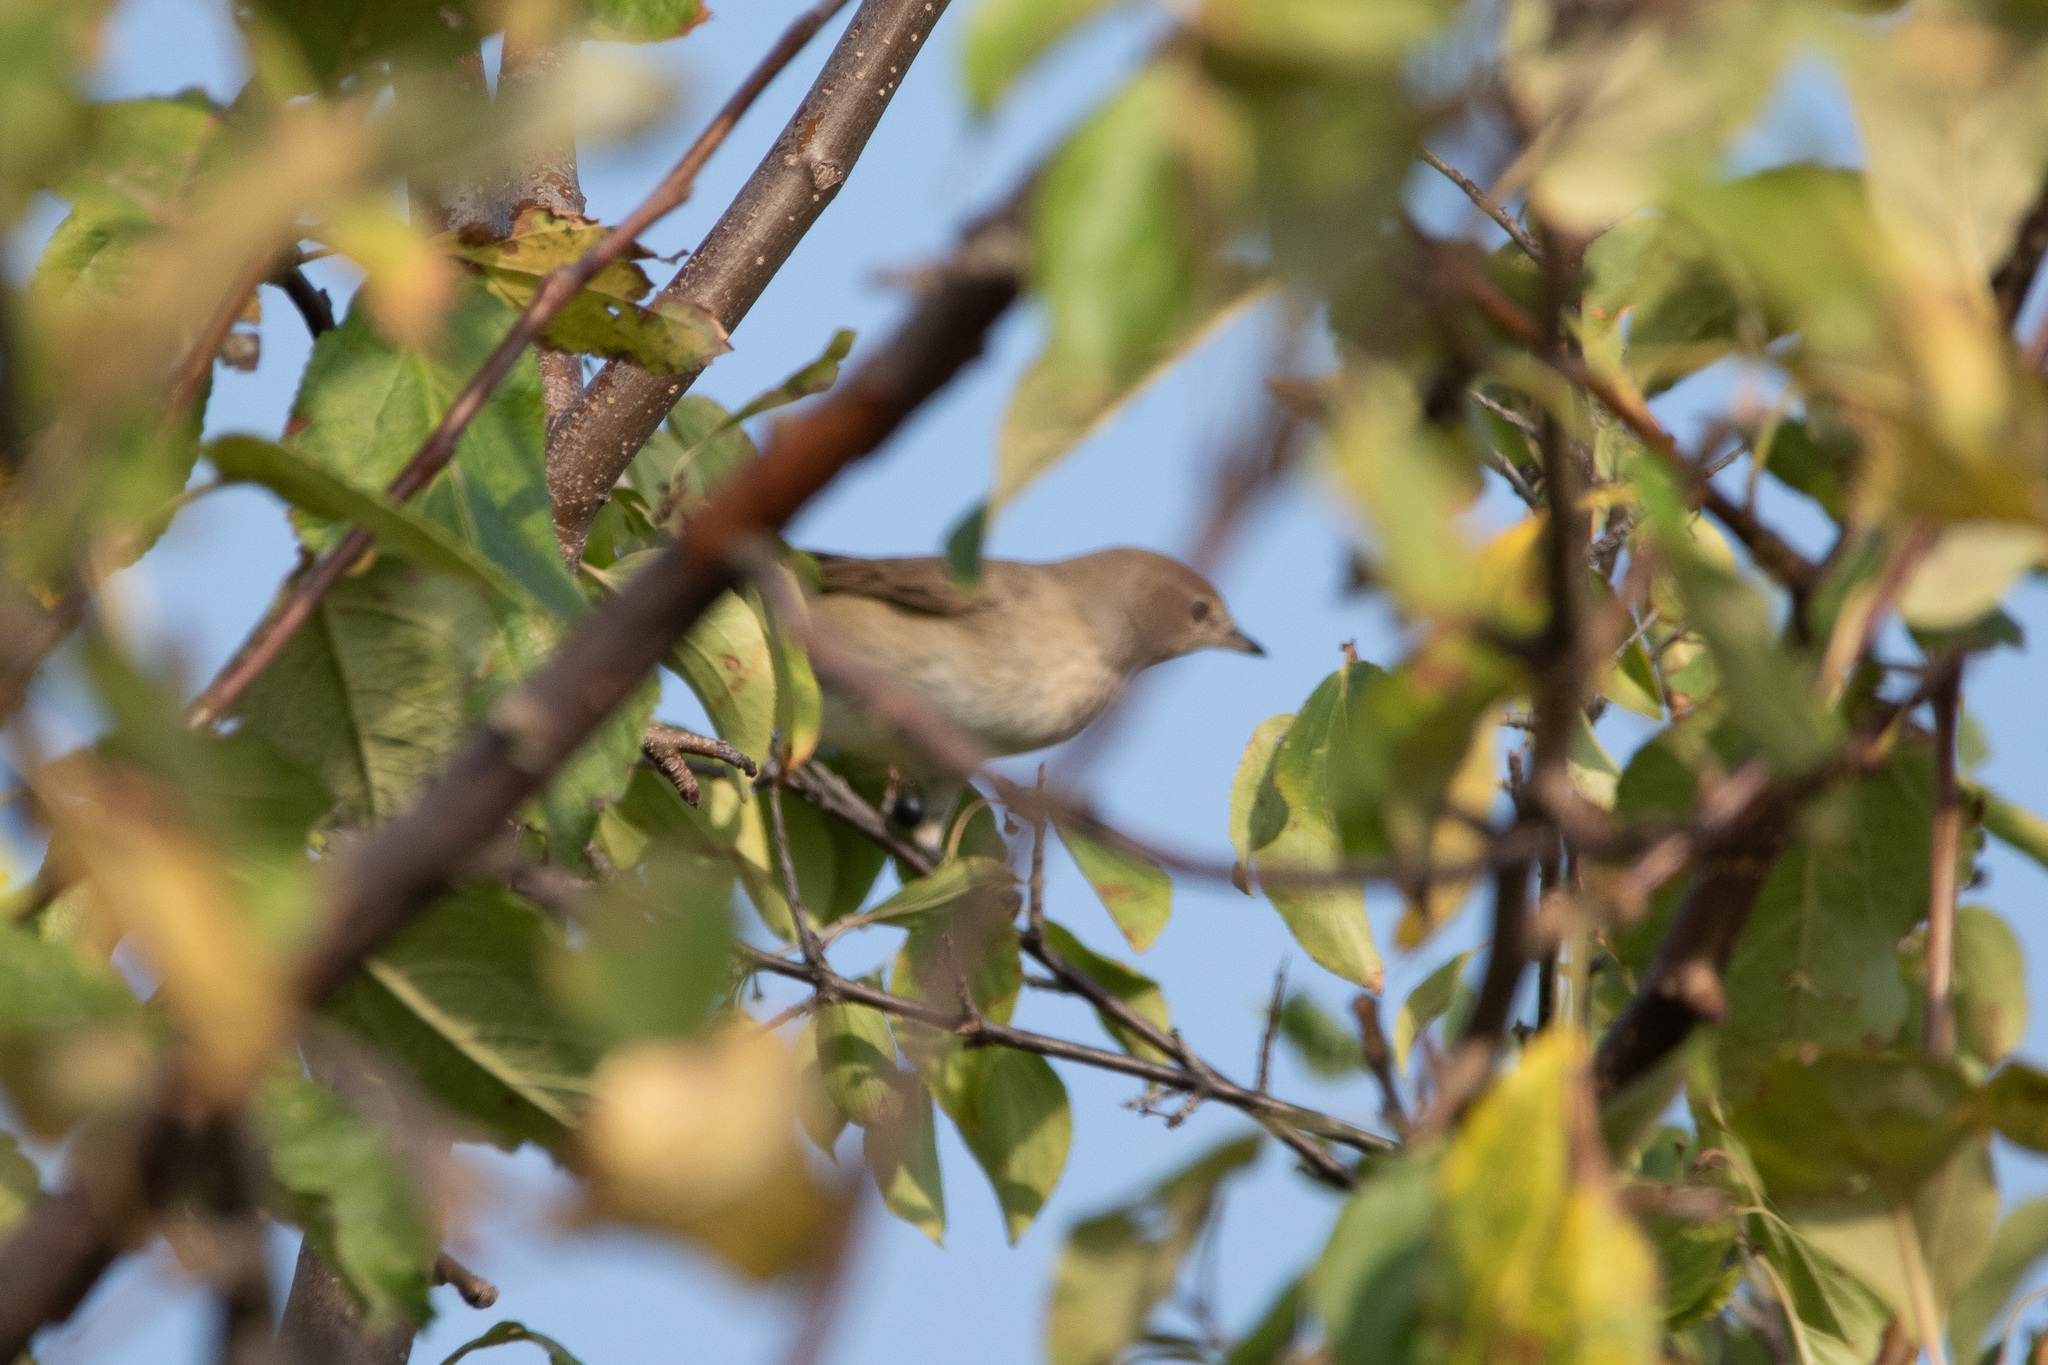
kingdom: Animalia
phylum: Chordata
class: Aves
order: Passeriformes
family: Sylviidae
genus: Sylvia
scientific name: Sylvia borin
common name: Garden warbler
